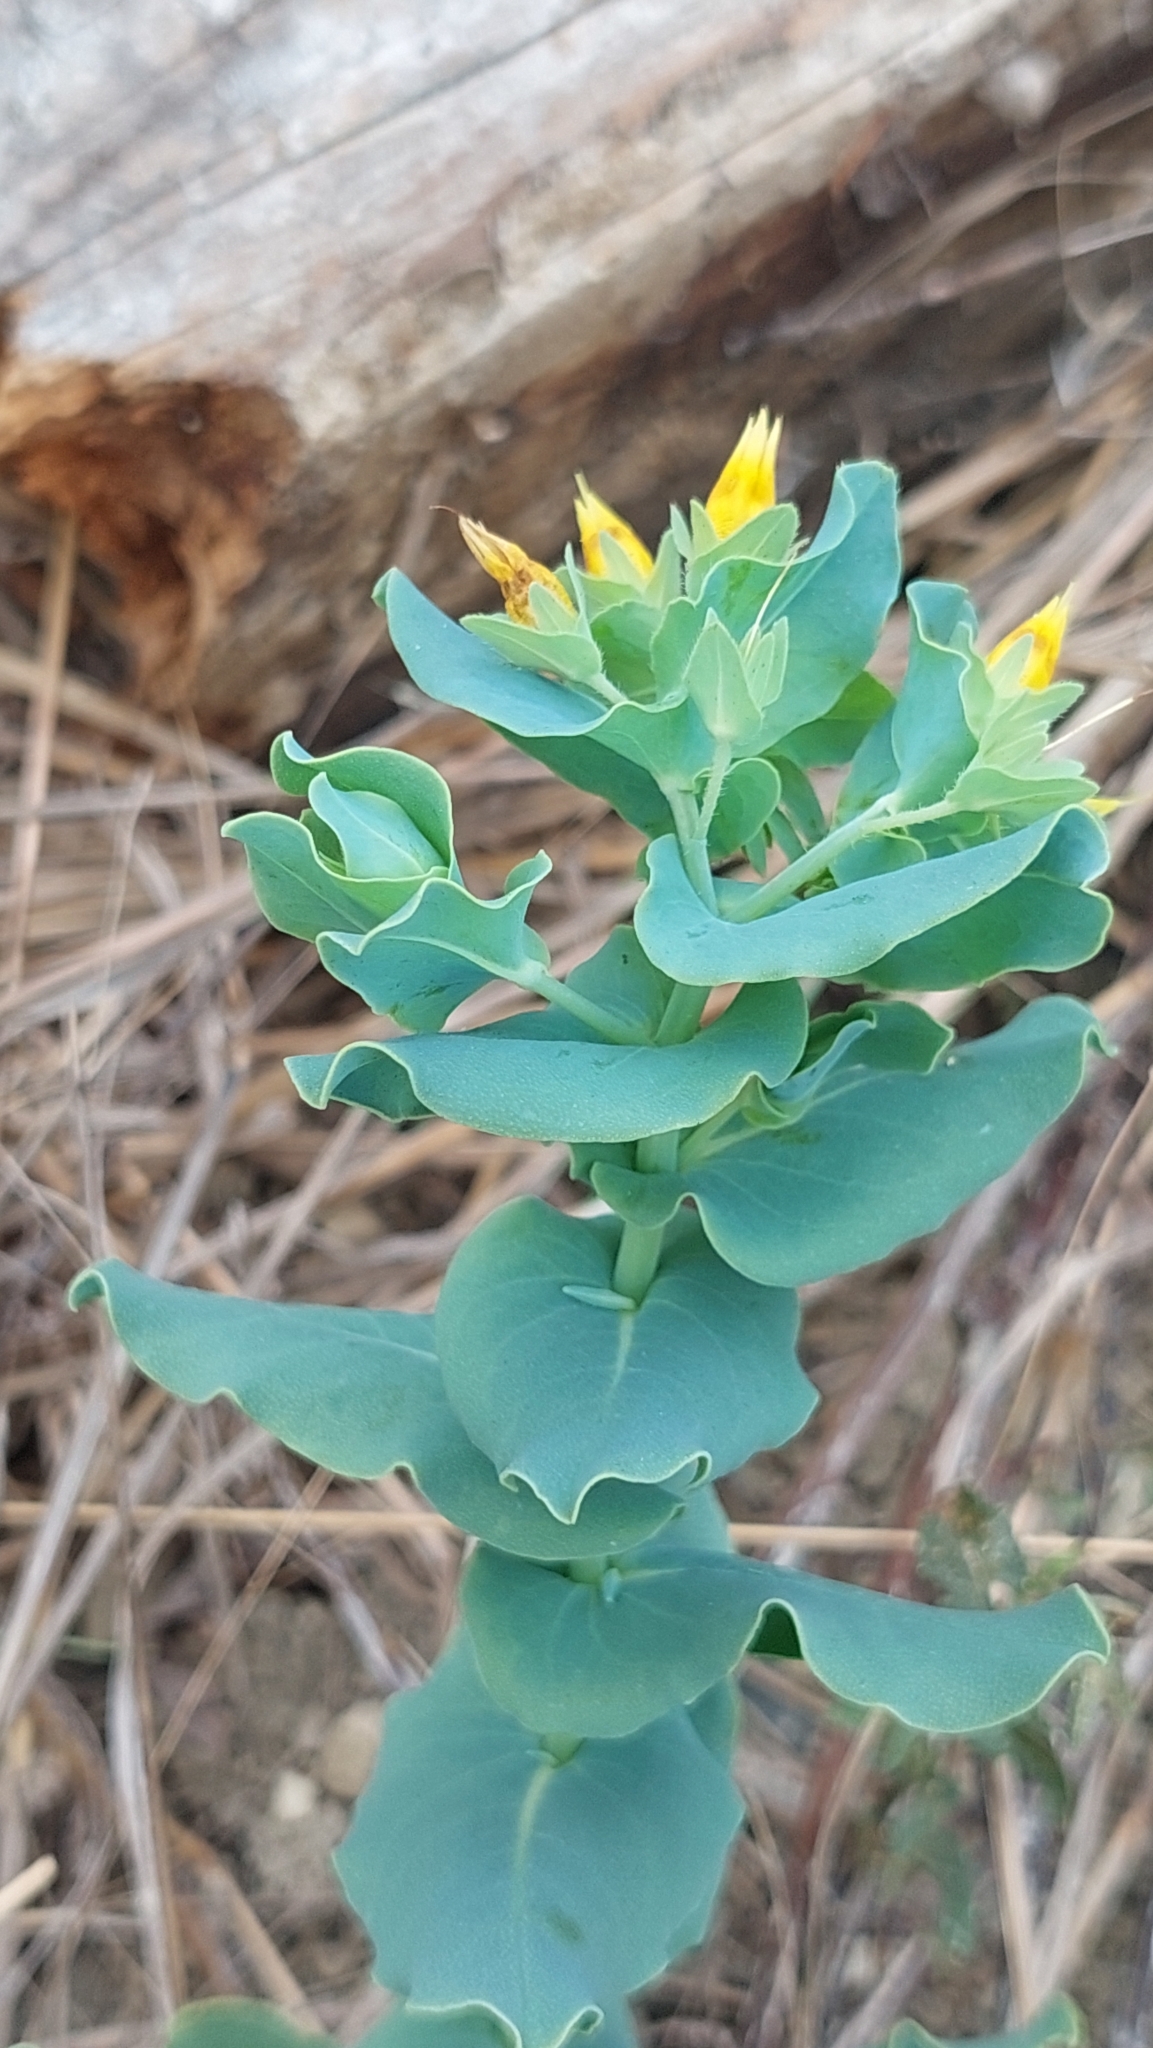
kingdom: Plantae
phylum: Tracheophyta
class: Magnoliopsida
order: Boraginales
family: Boraginaceae
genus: Cerinthe
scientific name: Cerinthe minor
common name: Lesser honeywort
